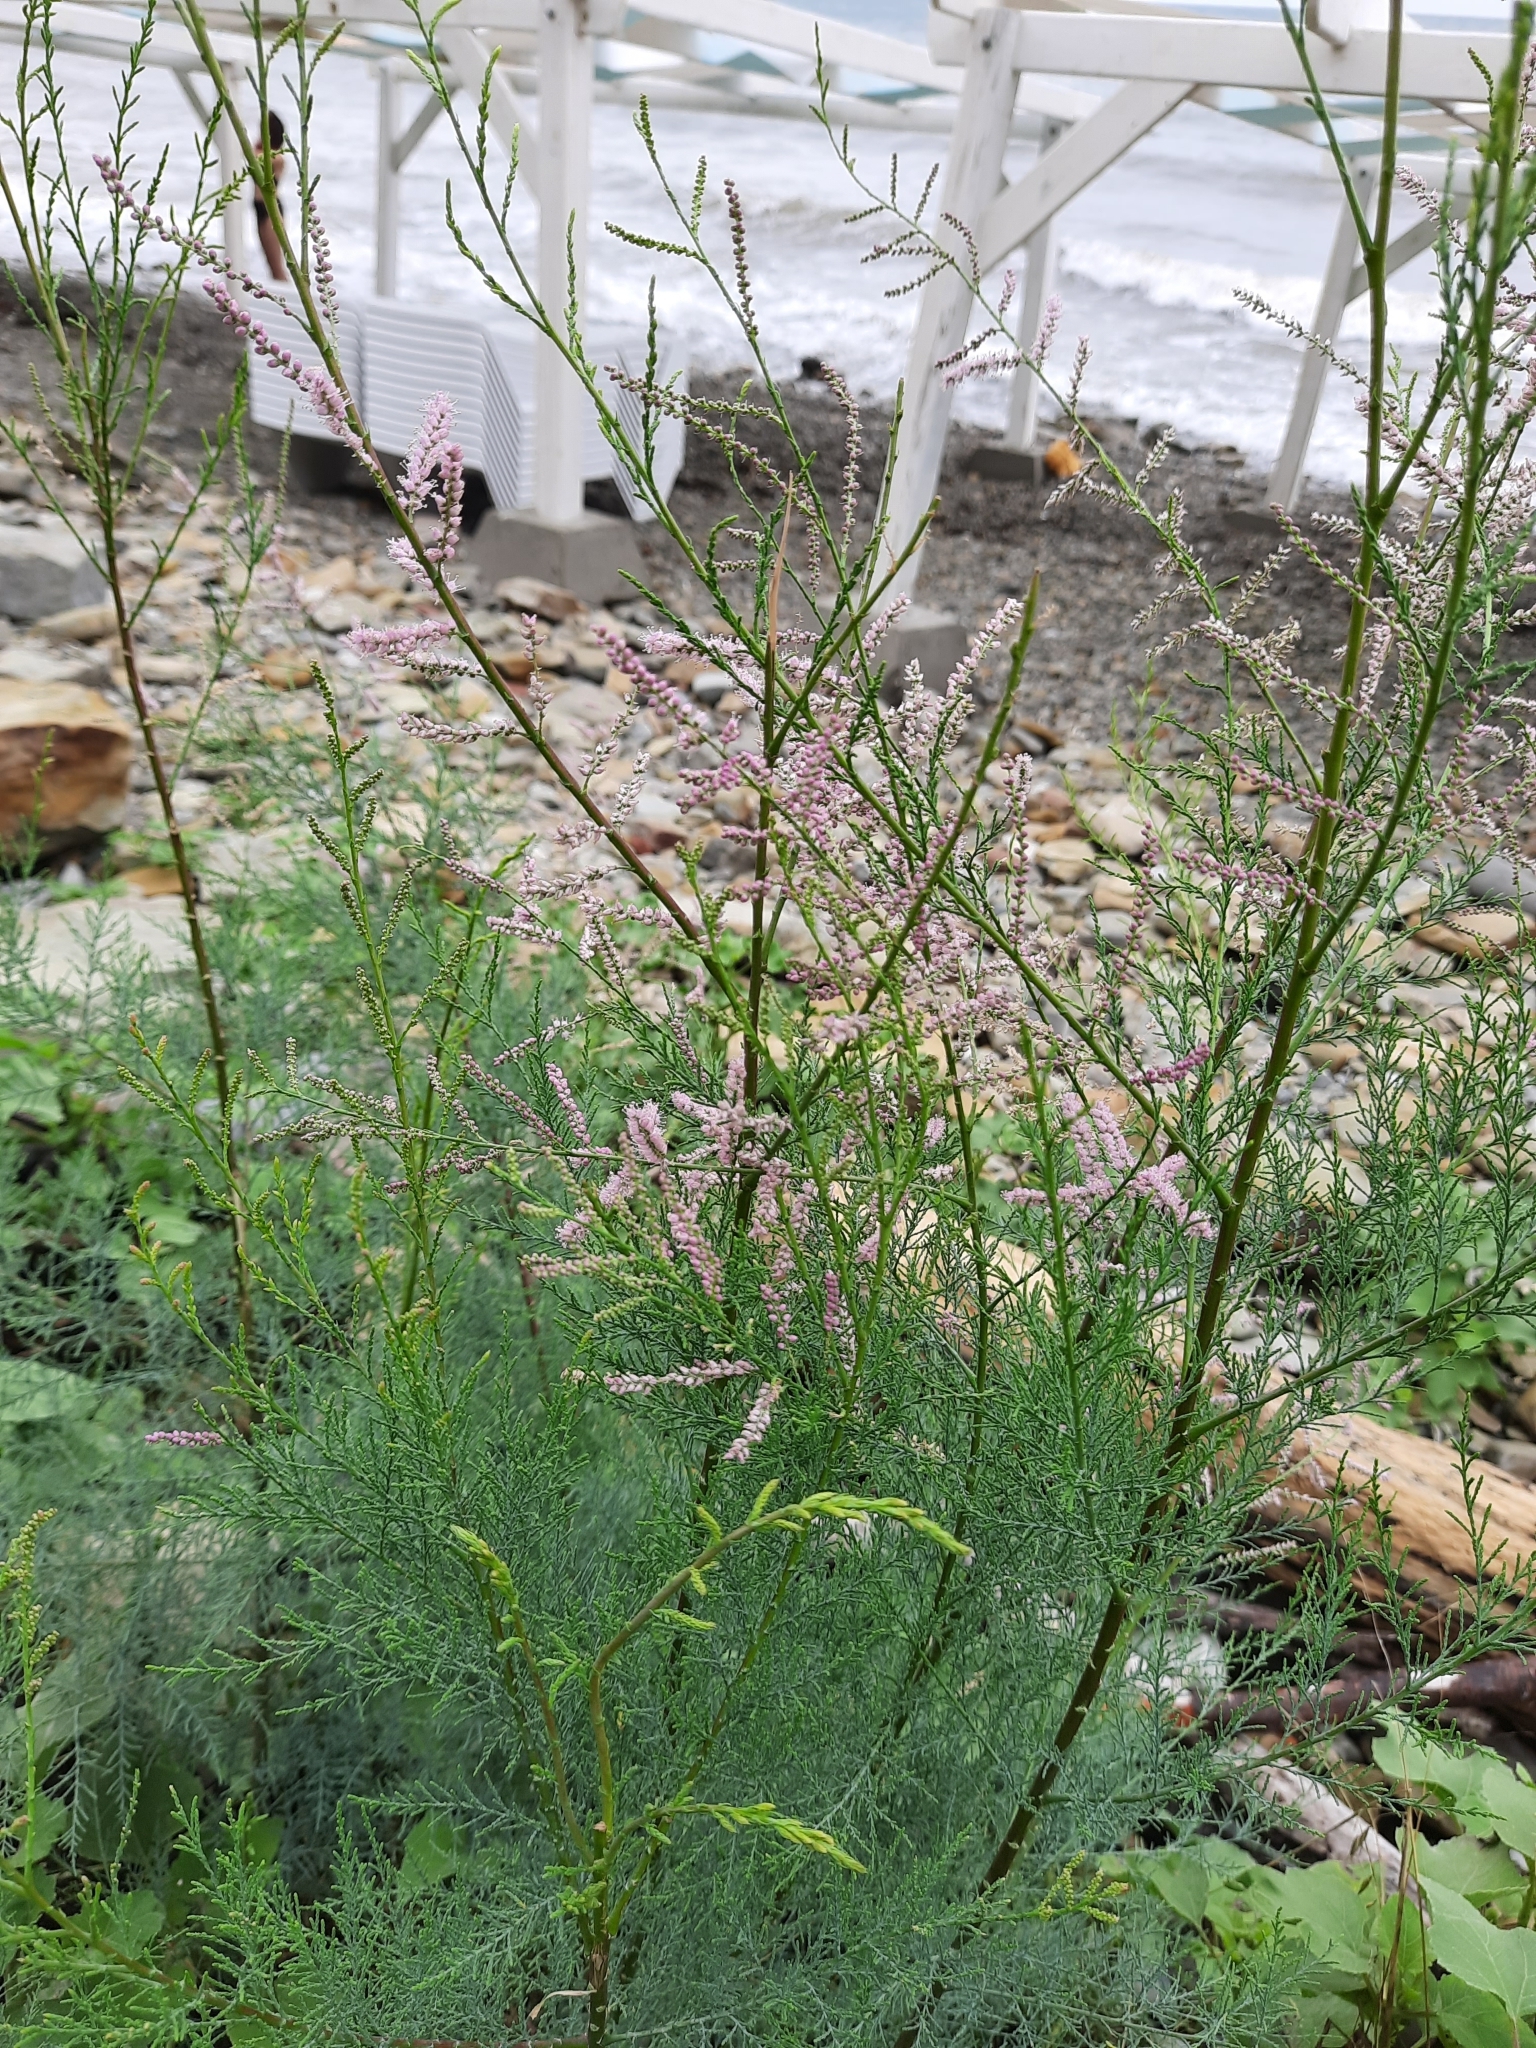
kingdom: Plantae
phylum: Tracheophyta
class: Magnoliopsida
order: Caryophyllales
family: Tamaricaceae
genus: Tamarix
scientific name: Tamarix ramosissima
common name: Pink tamarisk
